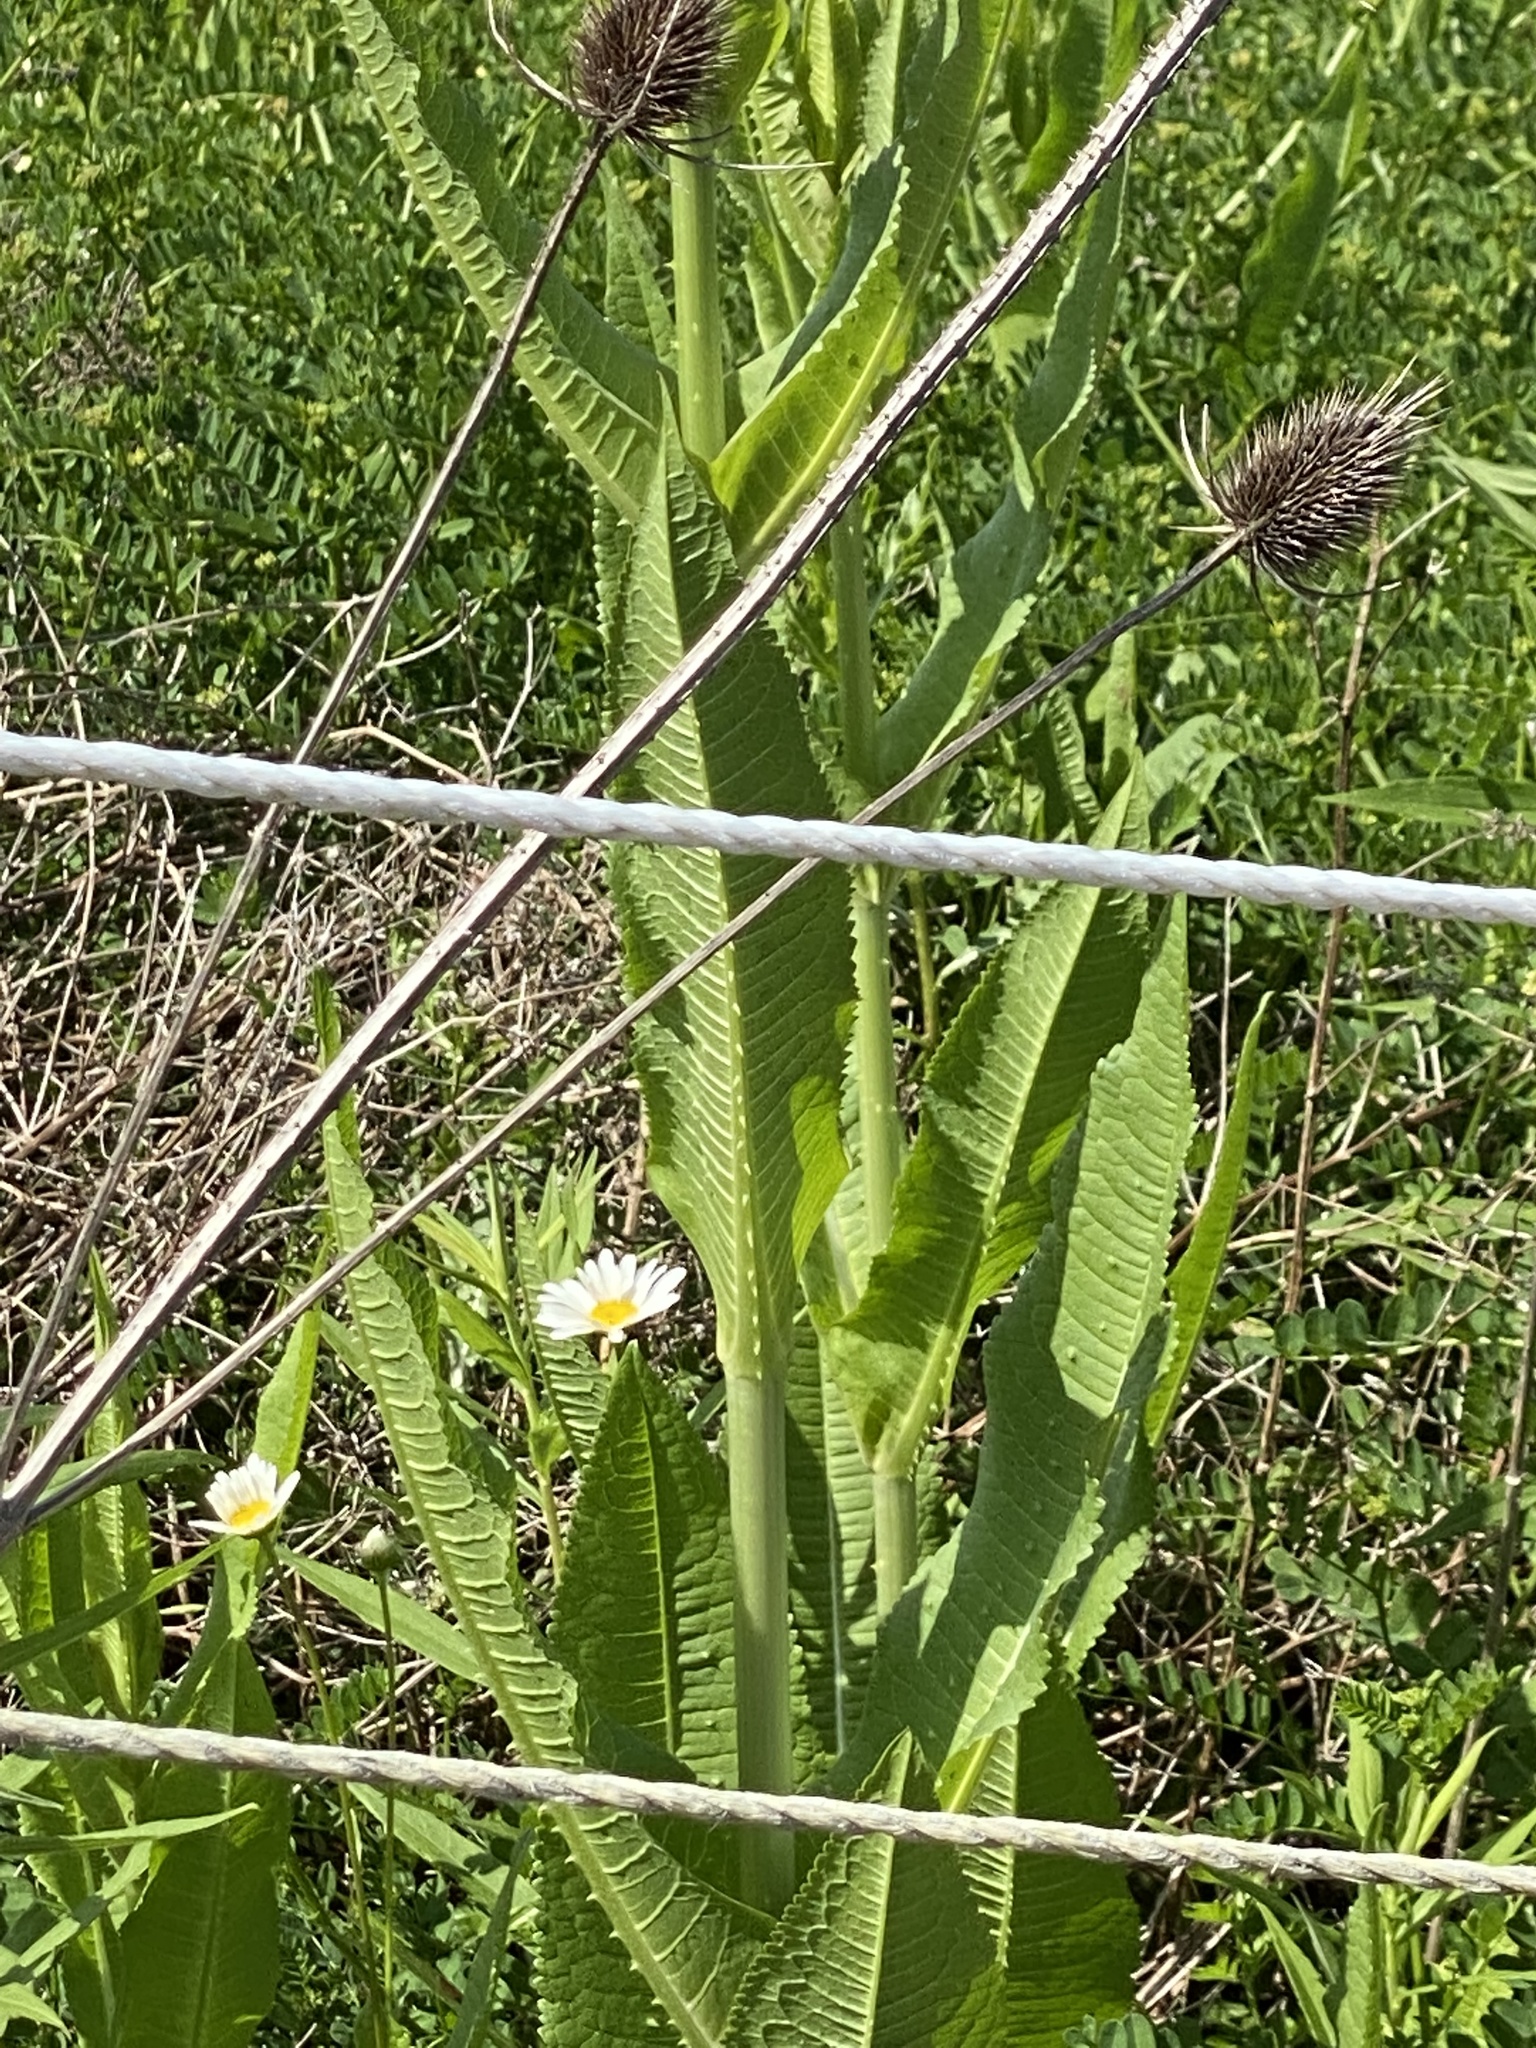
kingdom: Plantae
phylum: Tracheophyta
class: Magnoliopsida
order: Dipsacales
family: Caprifoliaceae
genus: Dipsacus
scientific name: Dipsacus fullonum
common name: Teasel
